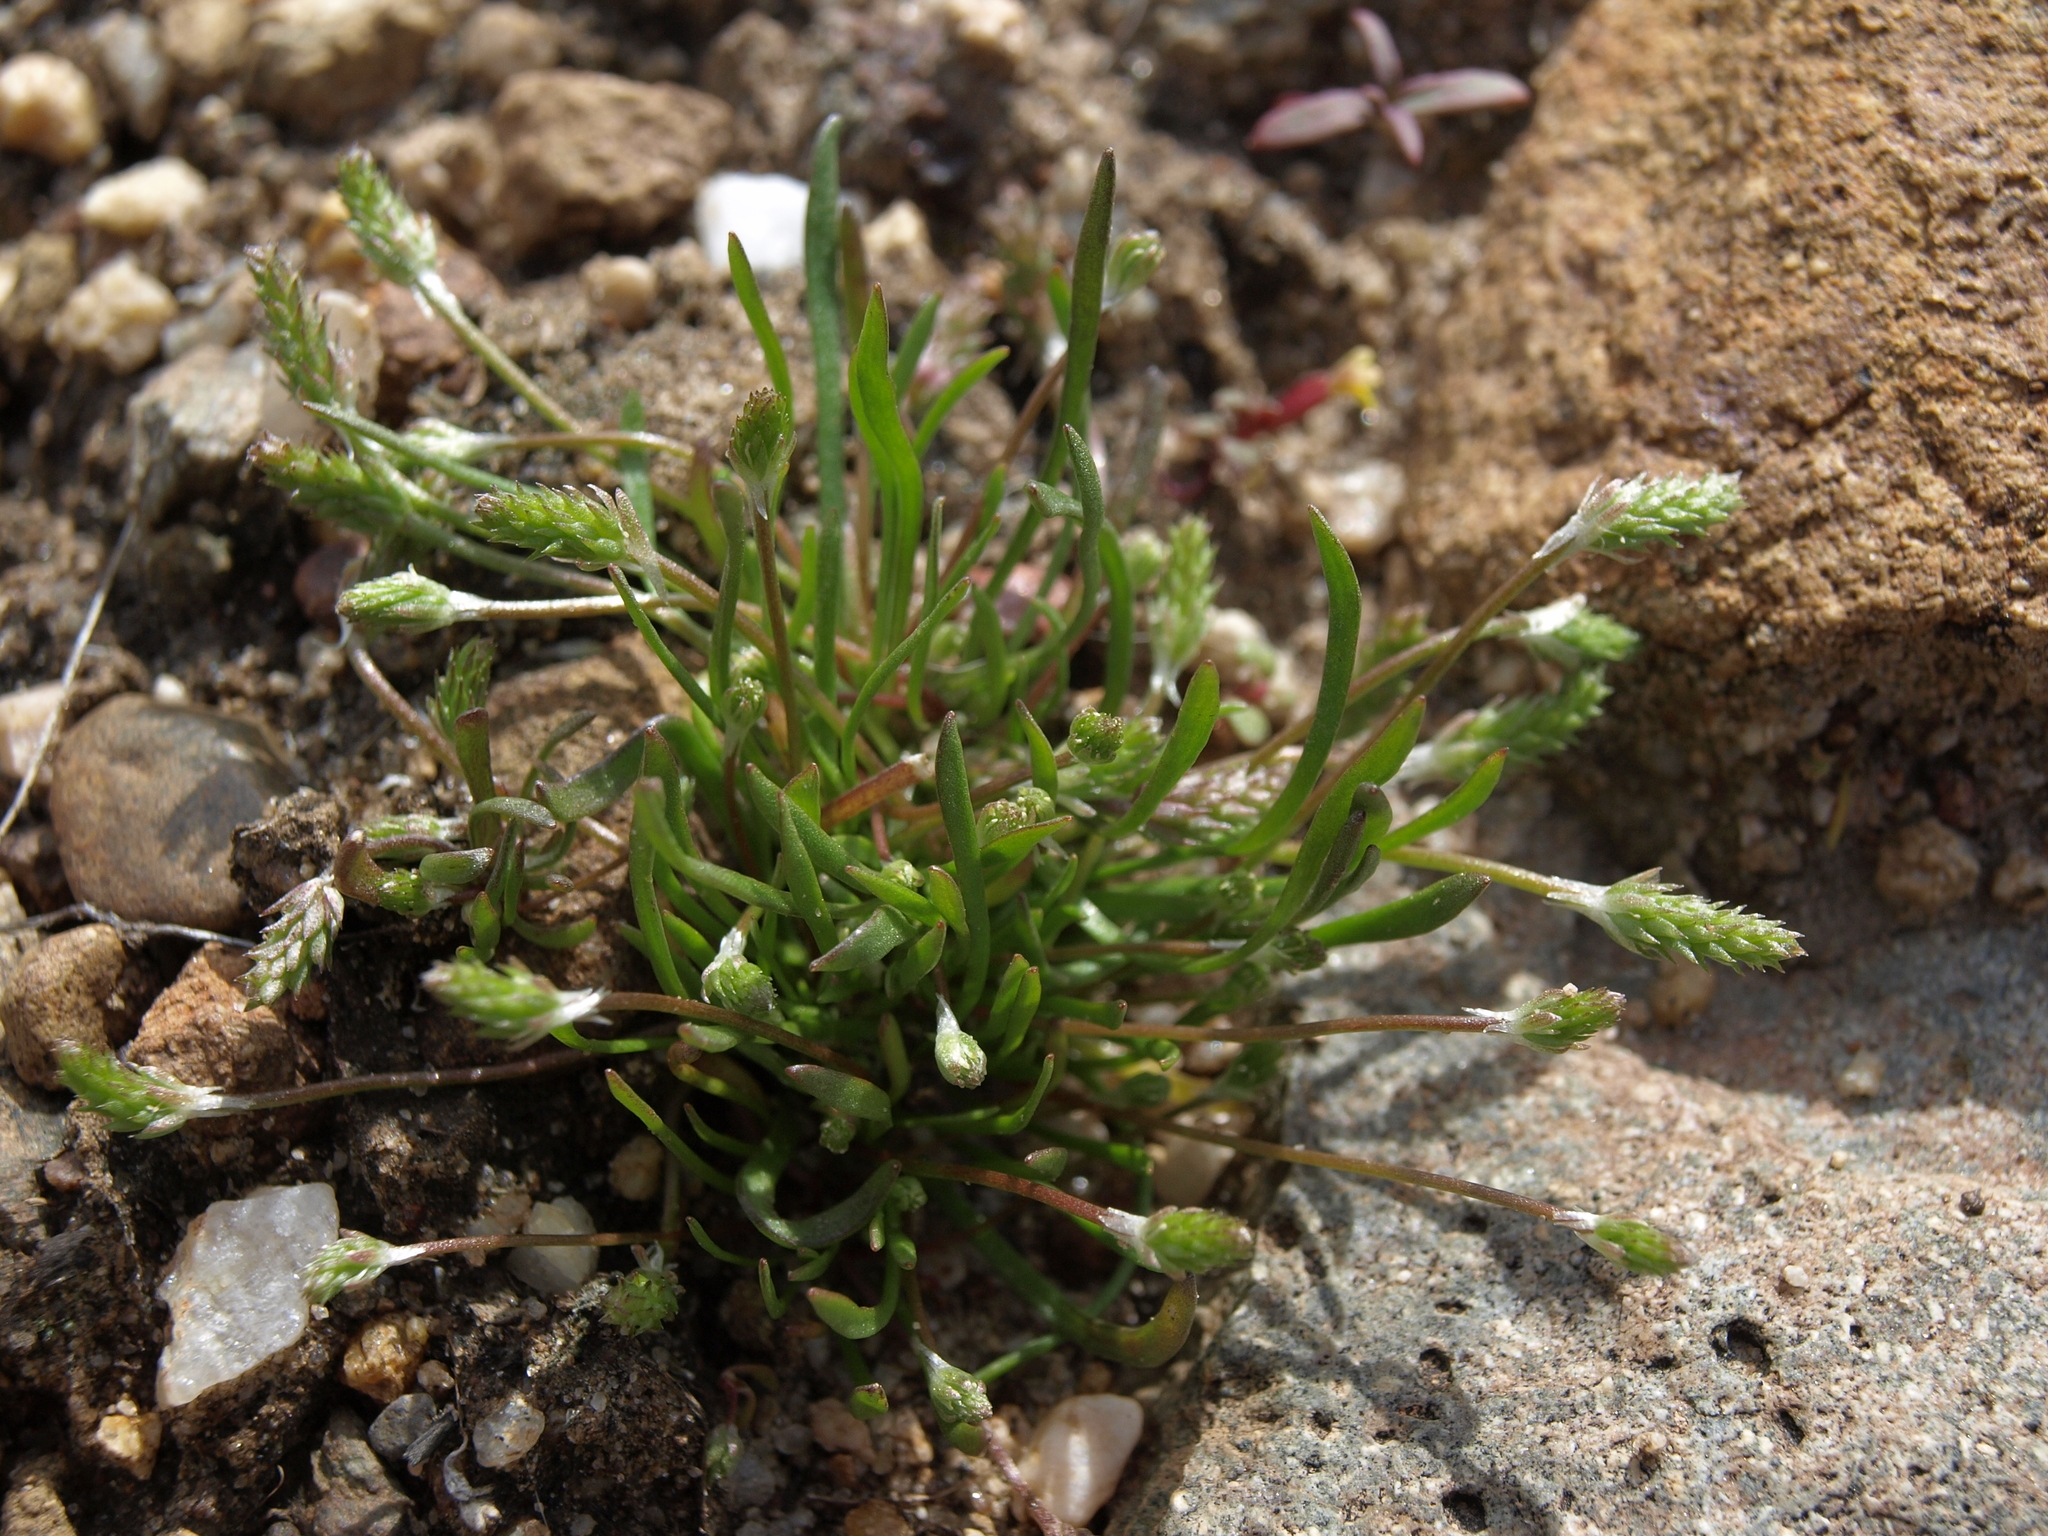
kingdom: Plantae
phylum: Tracheophyta
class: Magnoliopsida
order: Ranunculales
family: Ranunculaceae
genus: Myosurus
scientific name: Myosurus apetalus
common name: Mousetail
